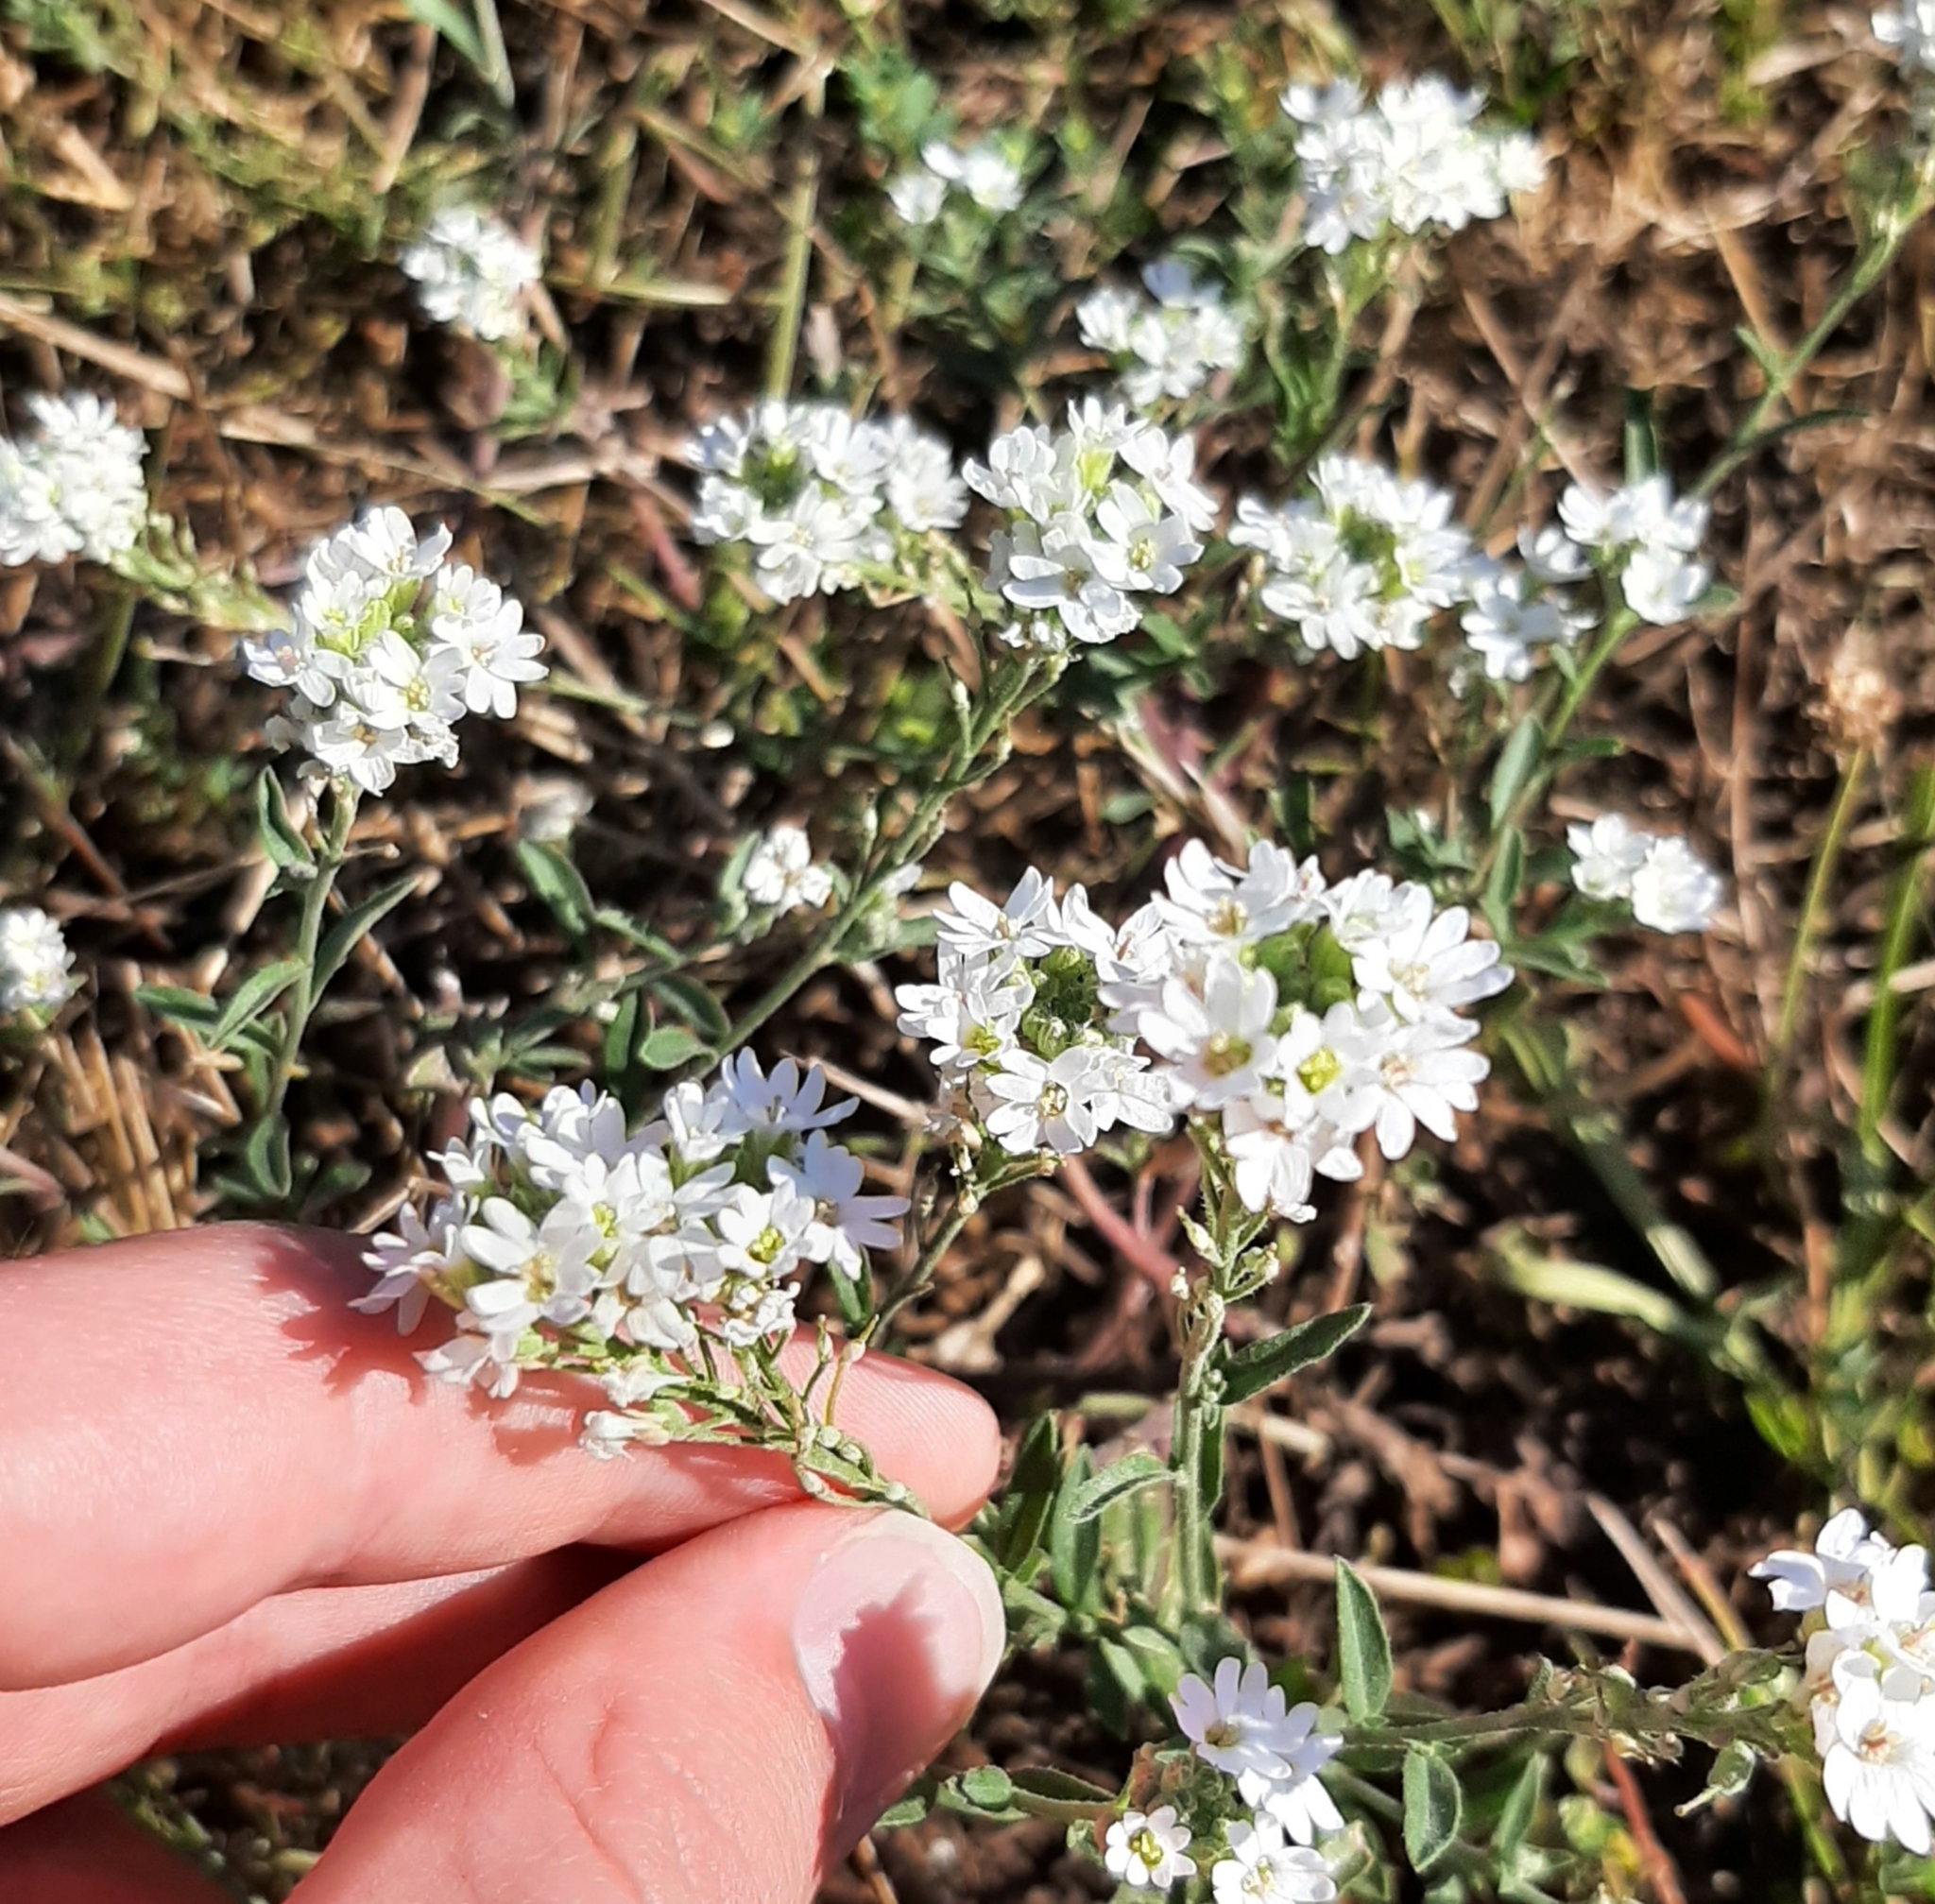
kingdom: Plantae
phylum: Tracheophyta
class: Magnoliopsida
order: Brassicales
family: Brassicaceae
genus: Berteroa
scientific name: Berteroa incana
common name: Hoary alison
